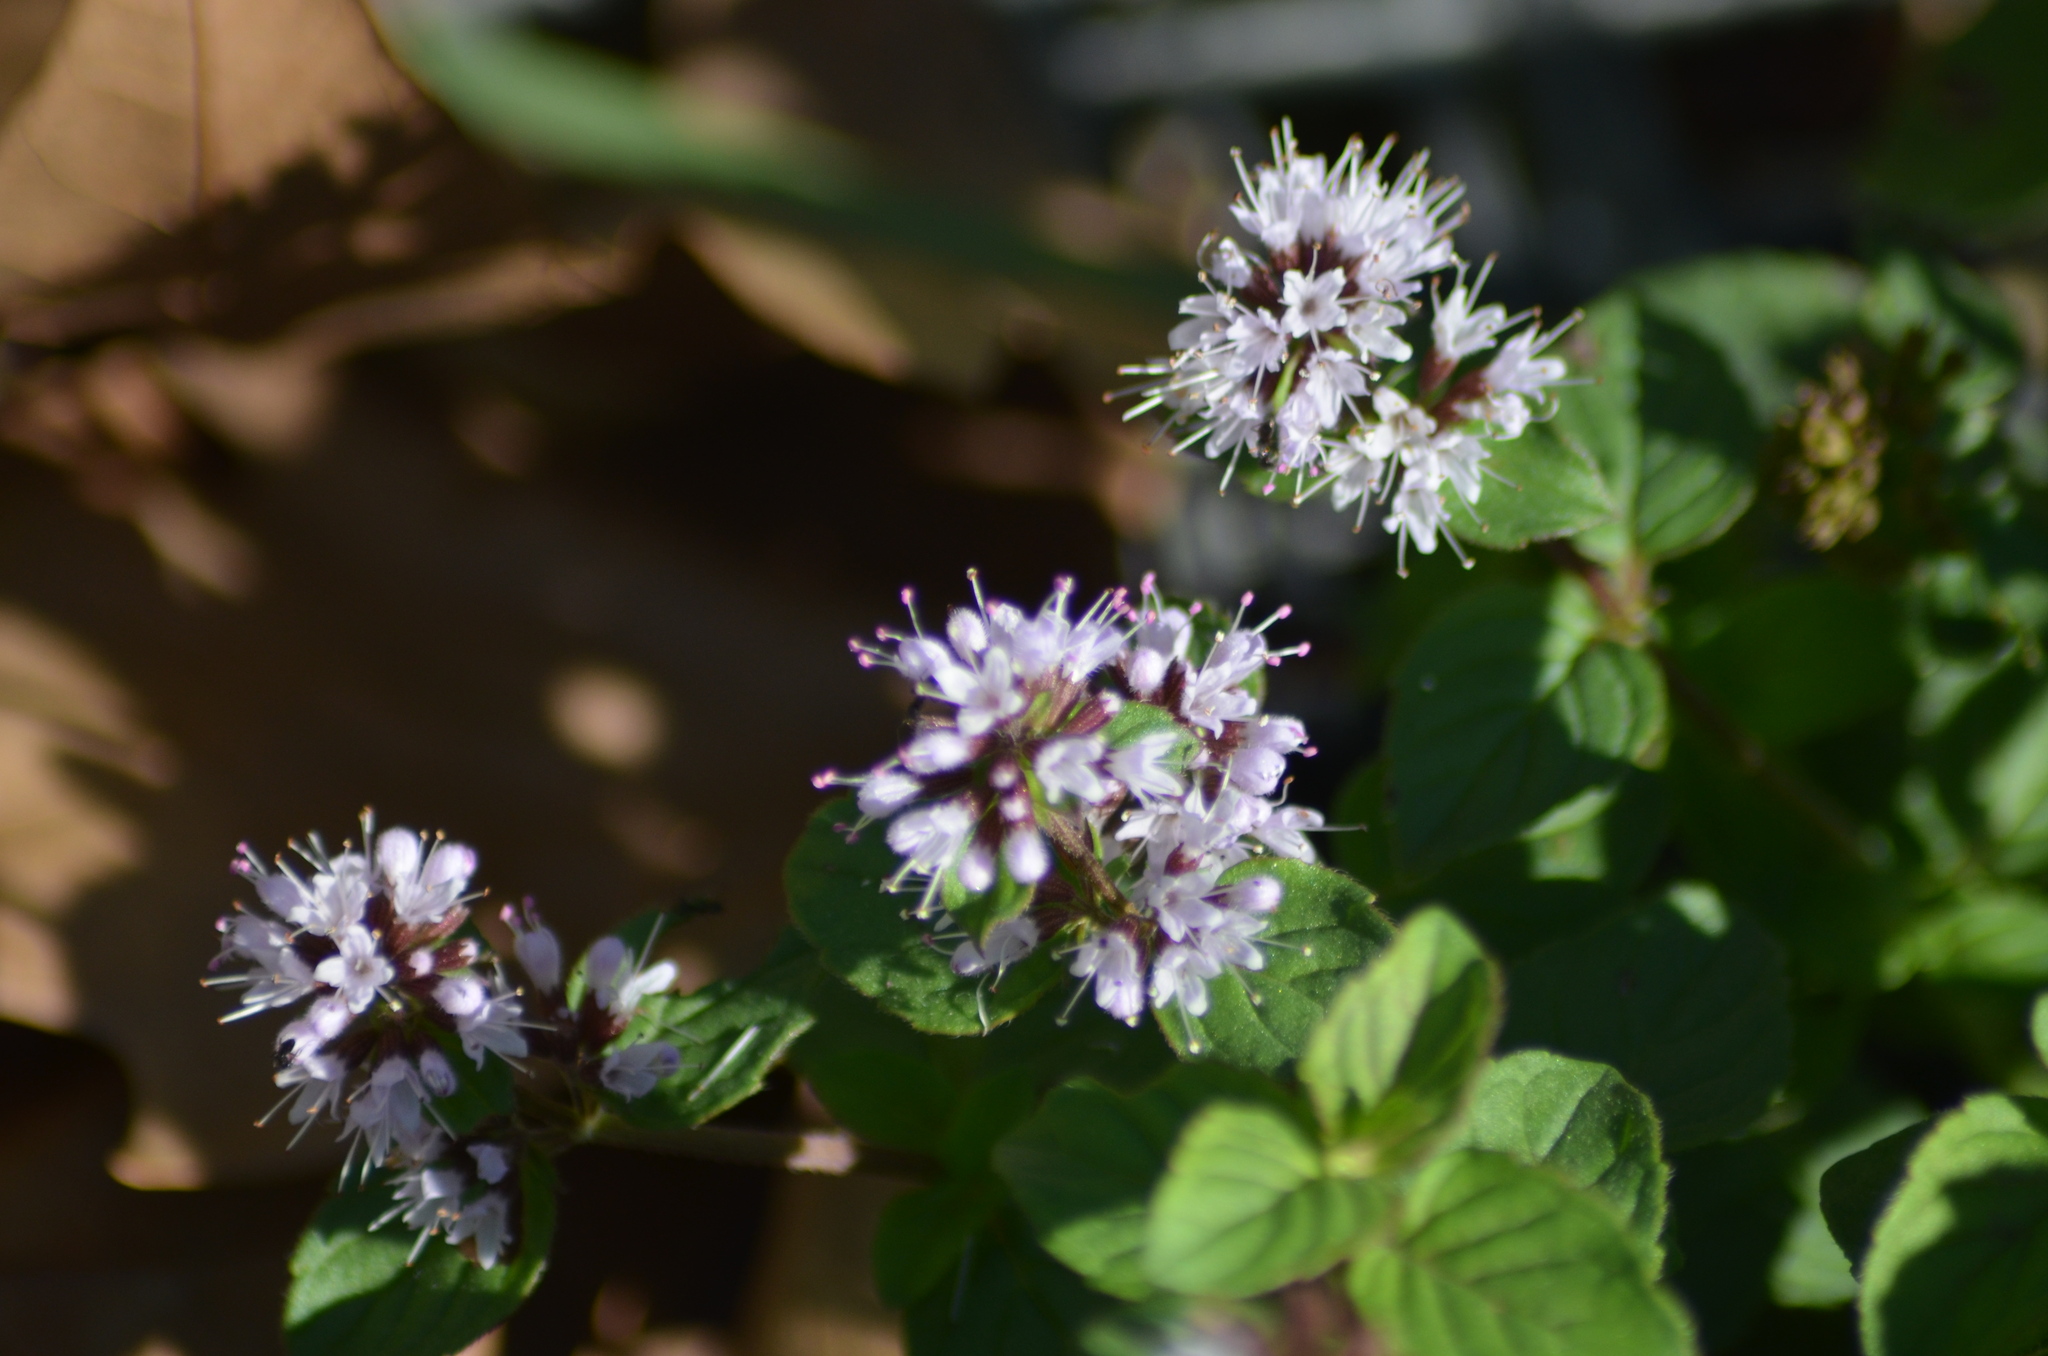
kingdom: Plantae
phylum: Tracheophyta
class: Magnoliopsida
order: Lamiales
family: Lamiaceae
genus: Mentha
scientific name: Mentha aquatica
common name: Water mint
